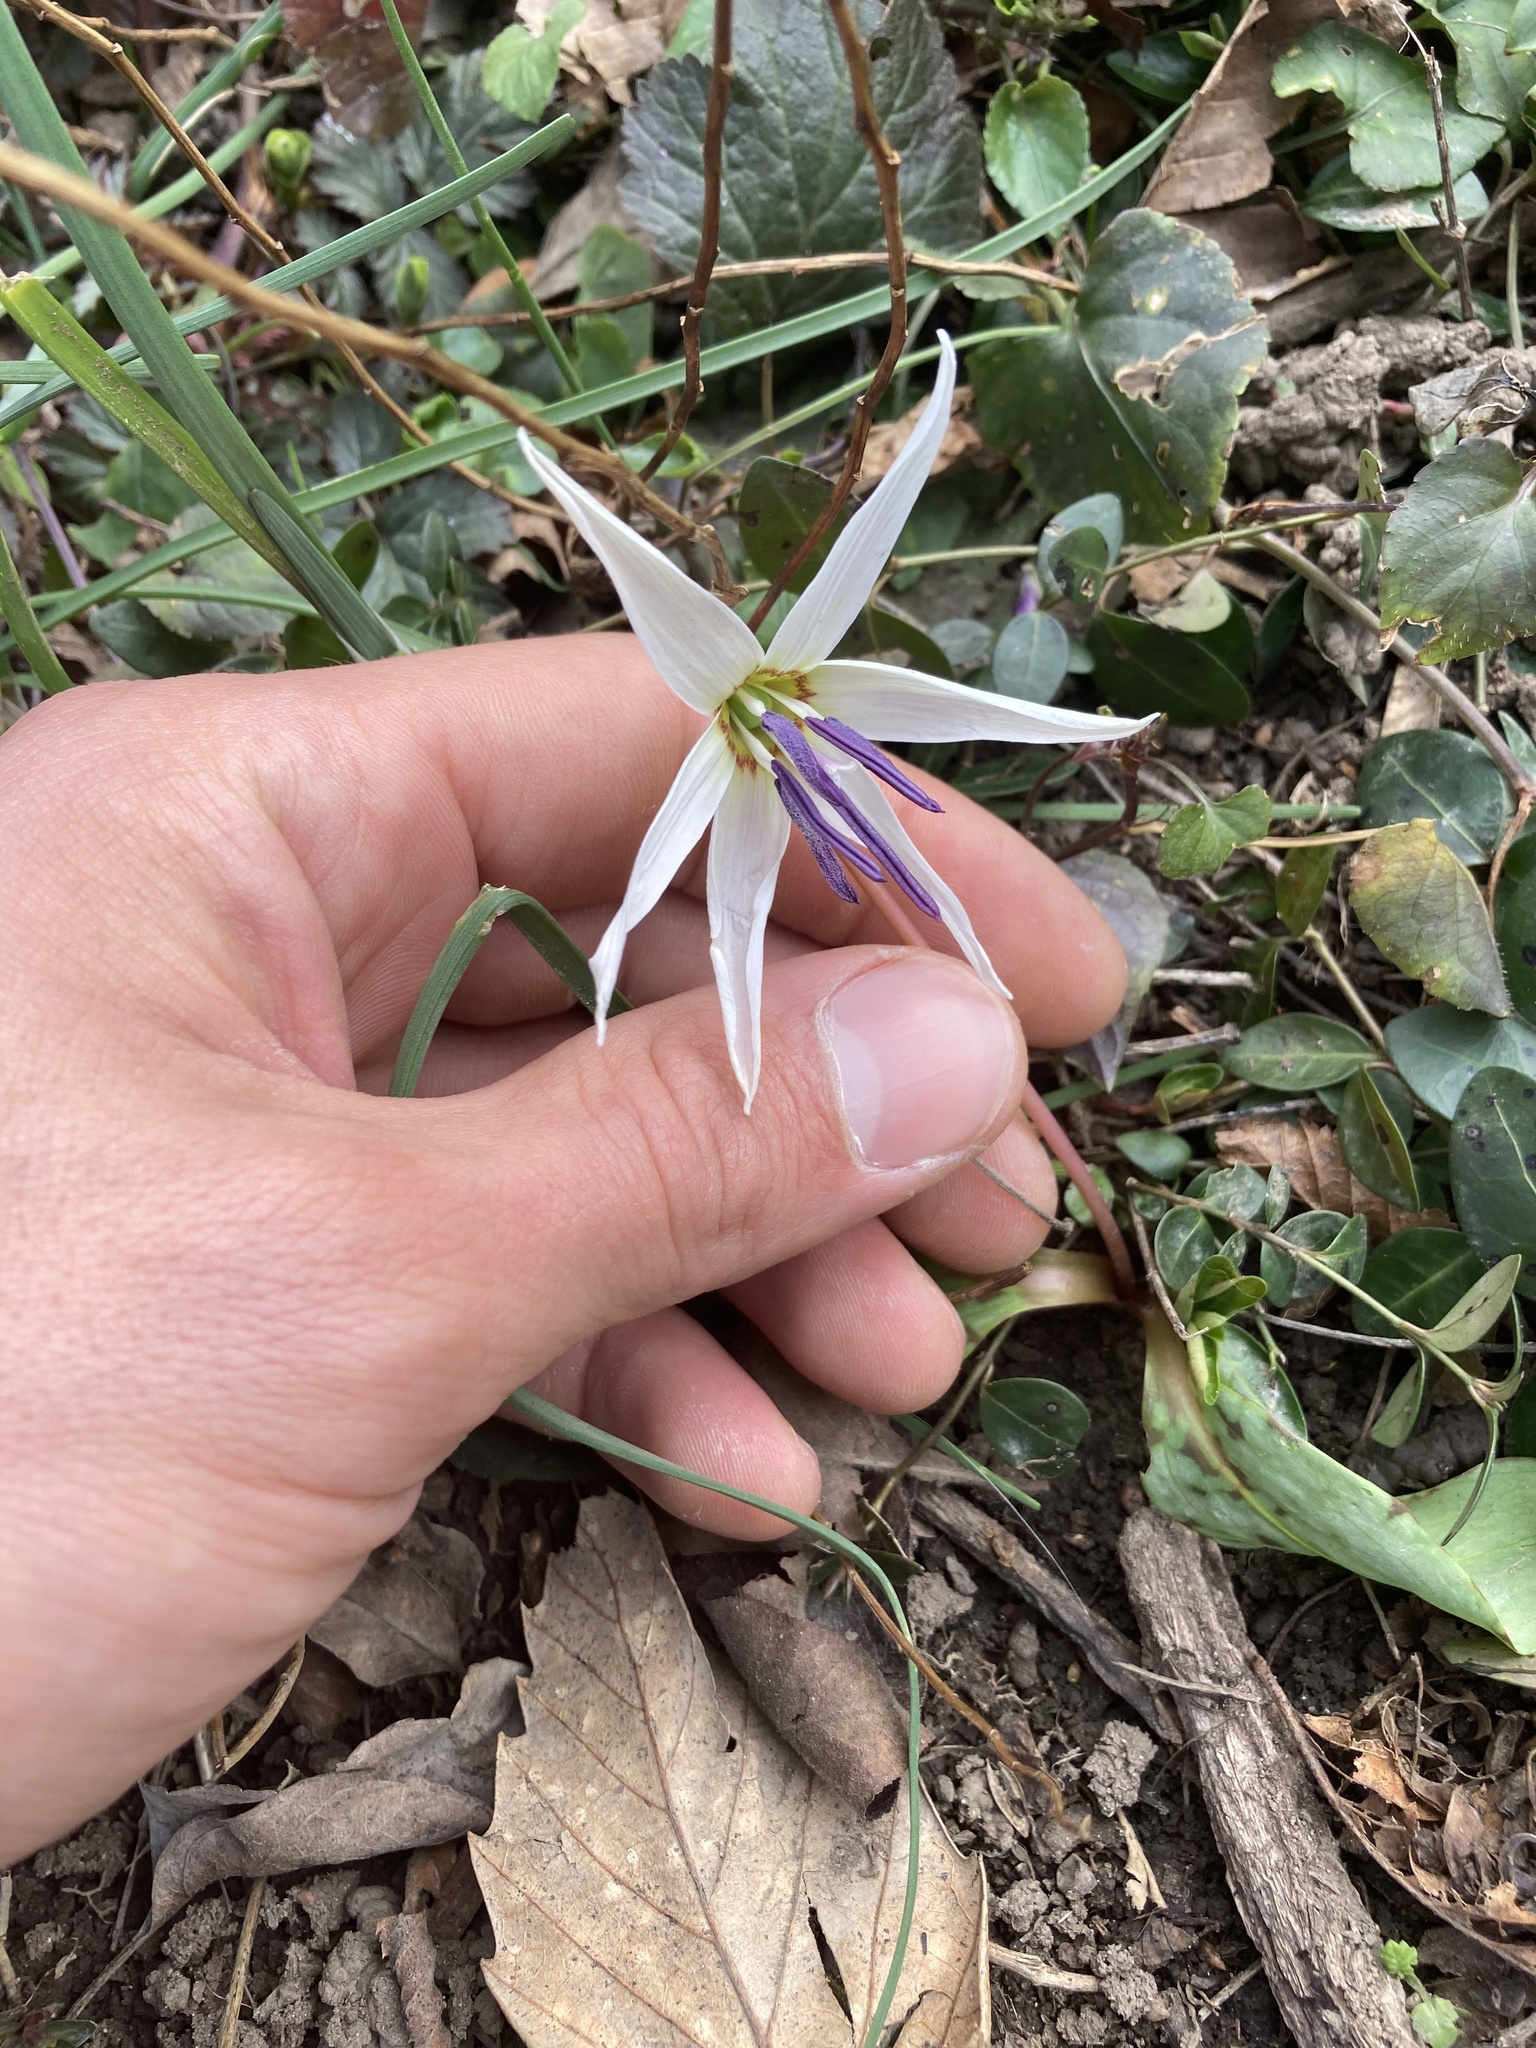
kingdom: Plantae
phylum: Tracheophyta
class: Liliopsida
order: Liliales
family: Liliaceae
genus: Erythronium
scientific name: Erythronium dens-canis
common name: Dog's-tooth-violet
